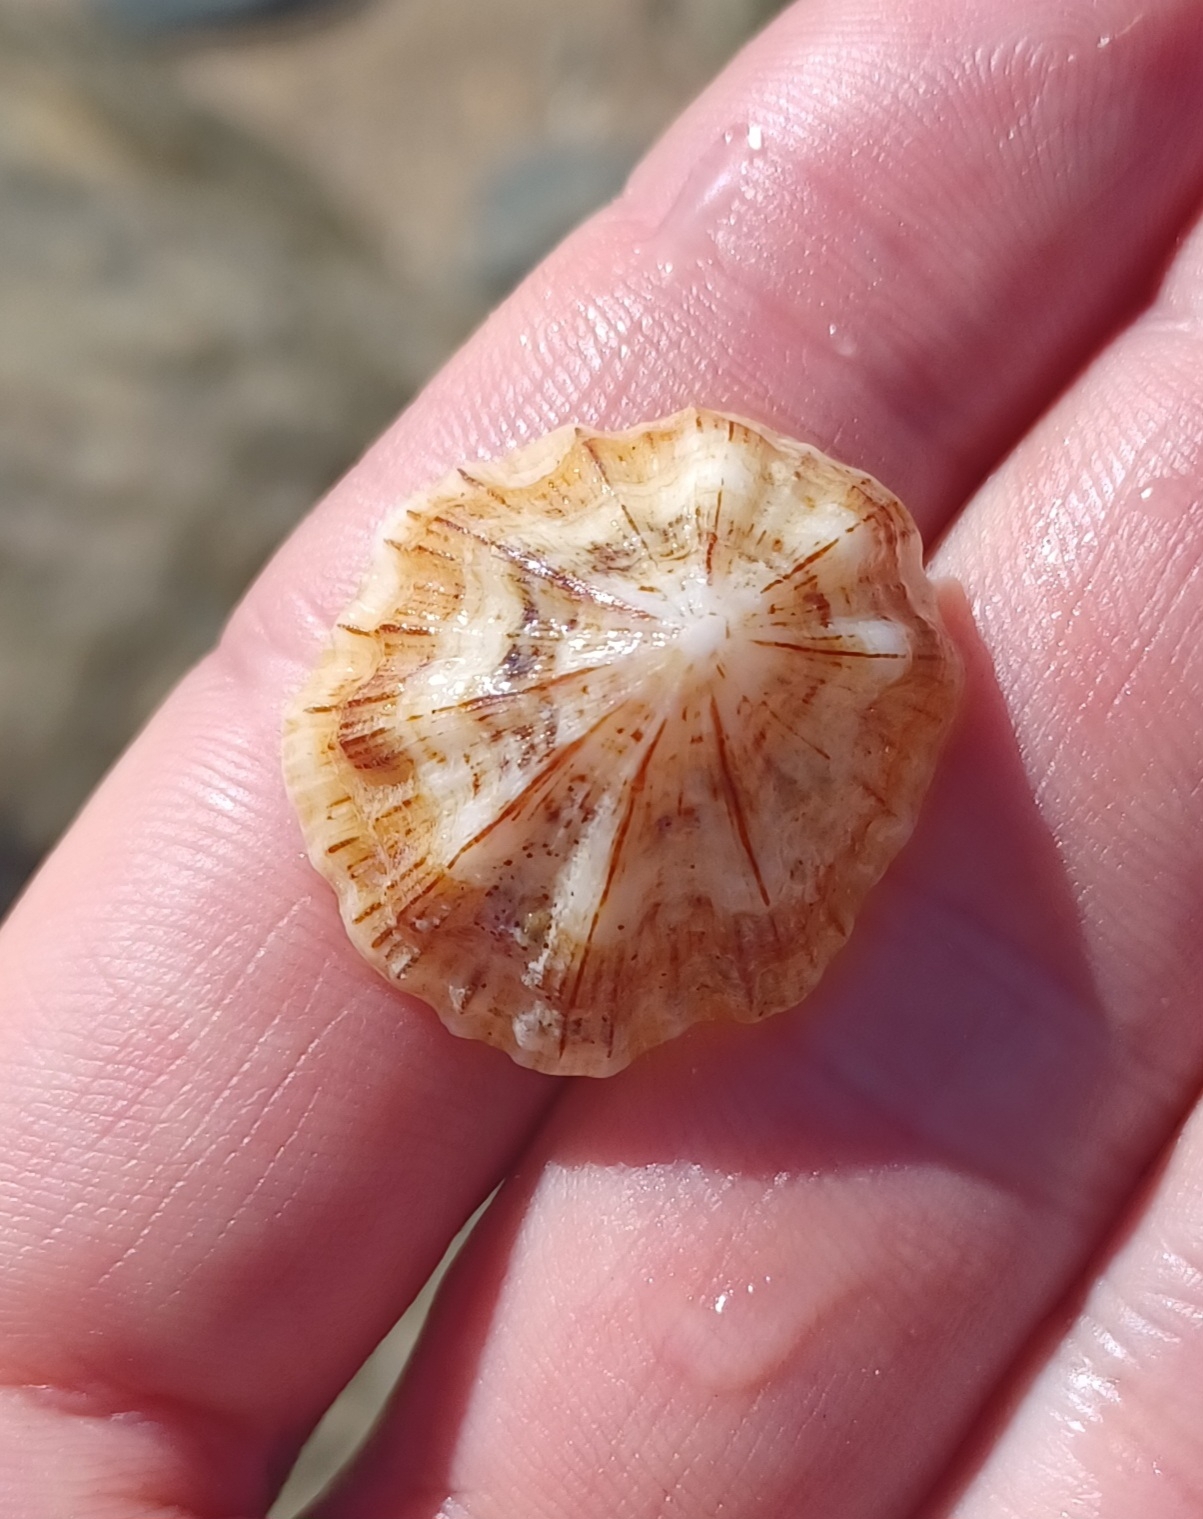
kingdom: Animalia
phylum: Mollusca
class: Gastropoda
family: Patellidae
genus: Scutellastra
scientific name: Scutellastra chapmani
